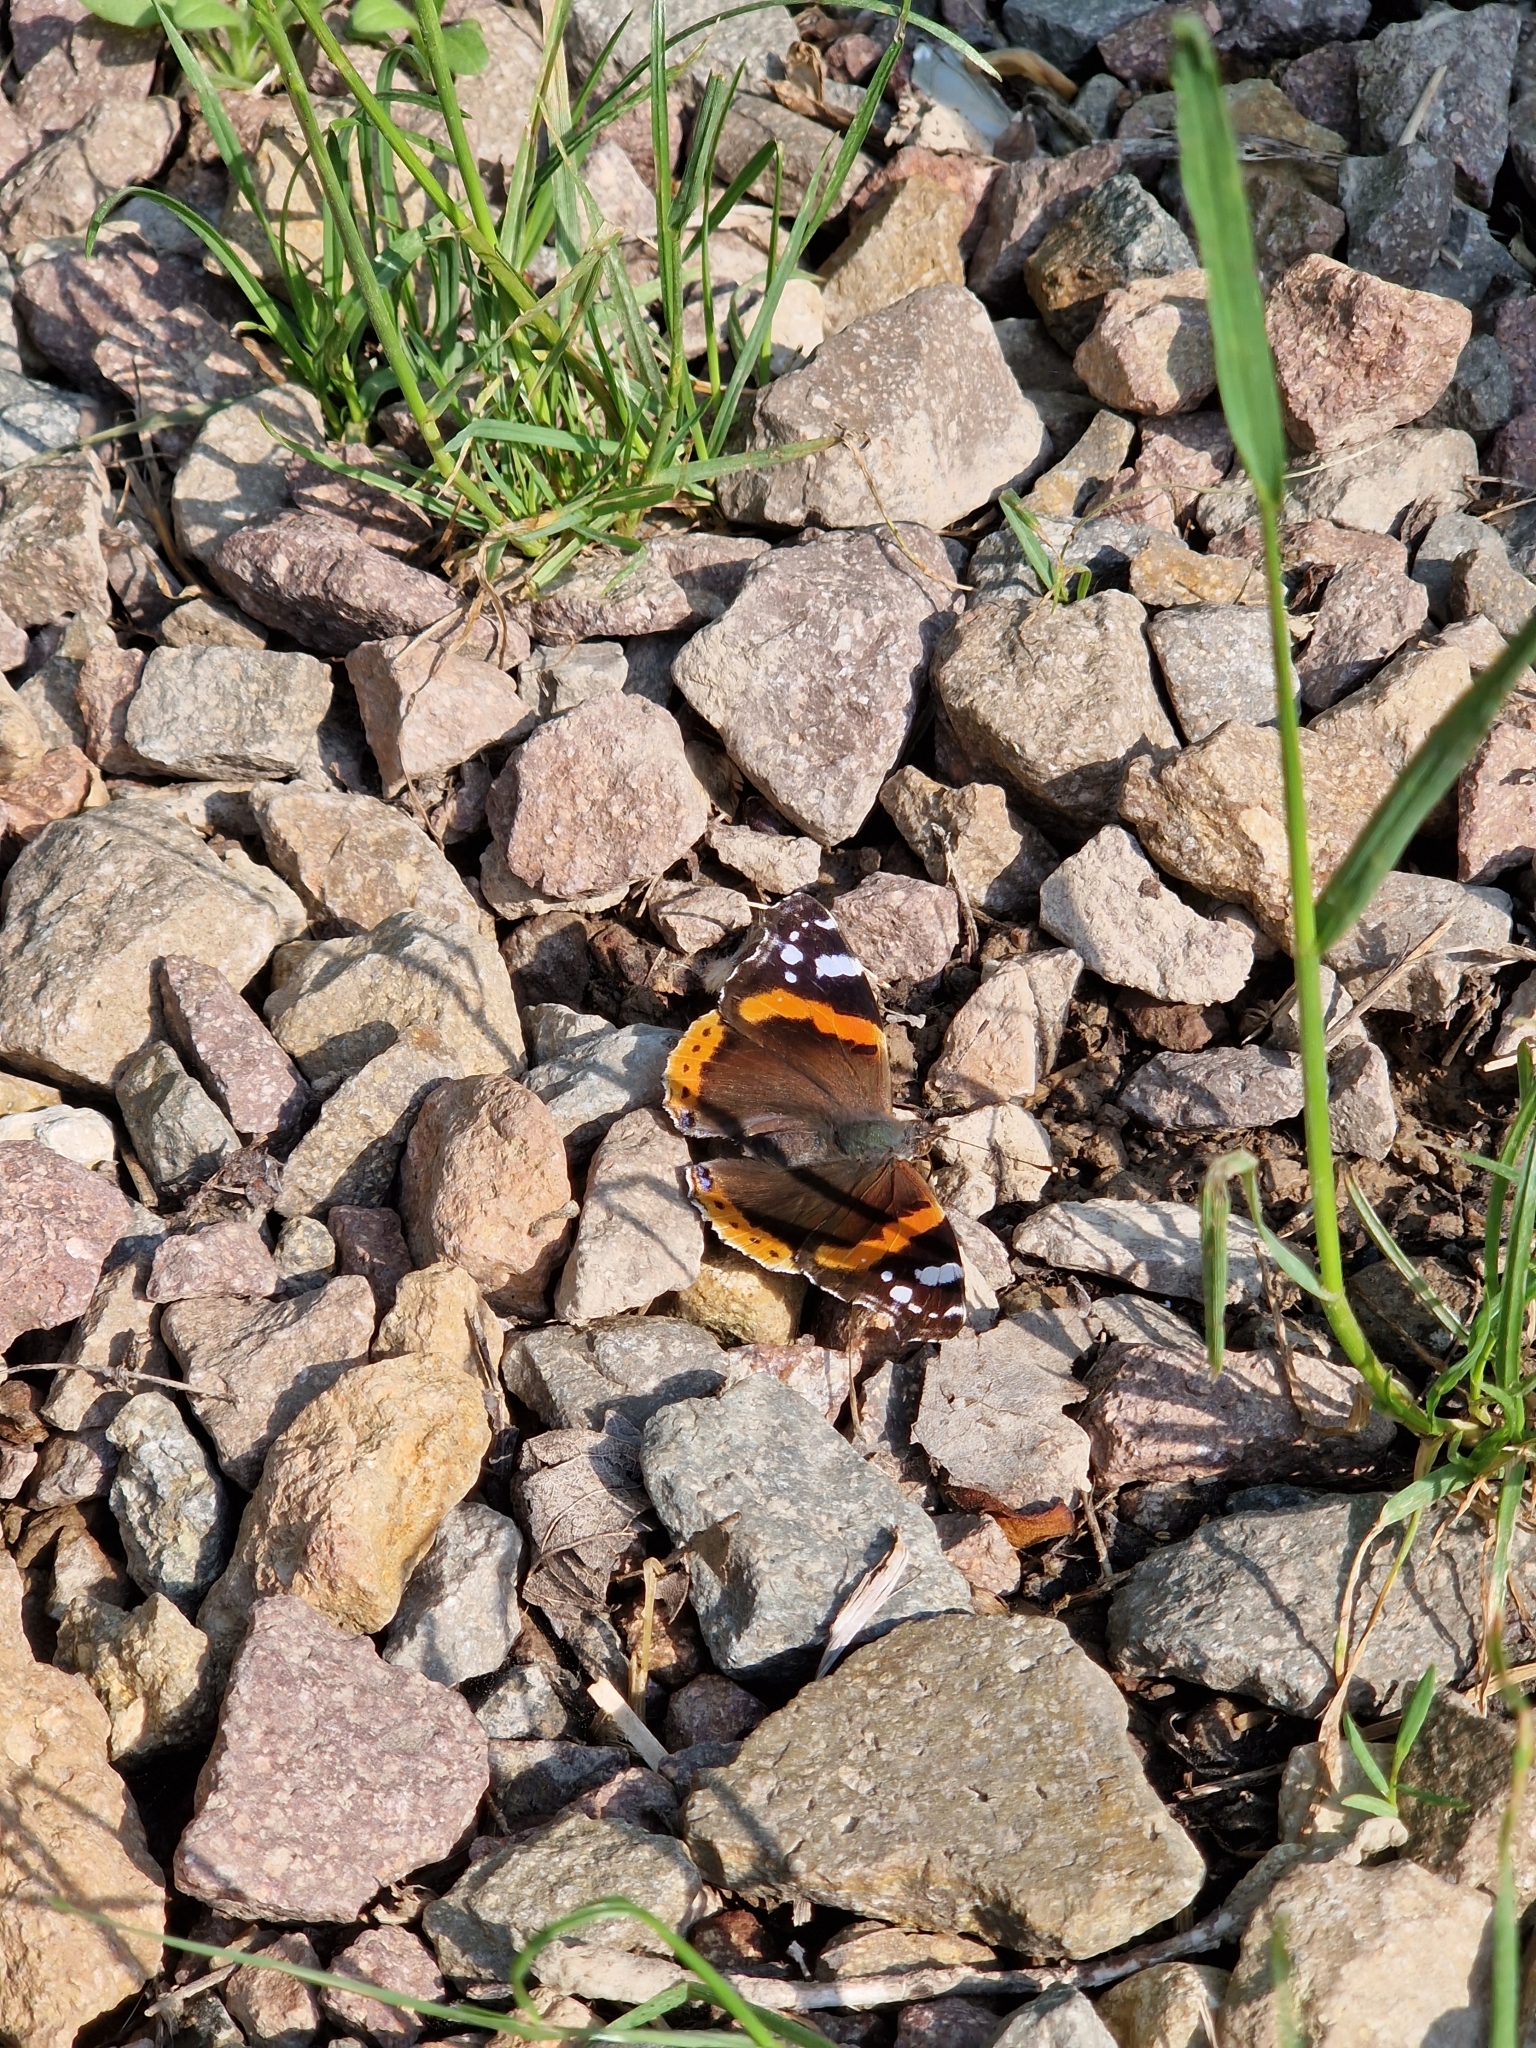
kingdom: Animalia
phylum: Arthropoda
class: Insecta
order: Lepidoptera
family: Nymphalidae
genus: Vanessa
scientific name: Vanessa atalanta
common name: Red admiral
